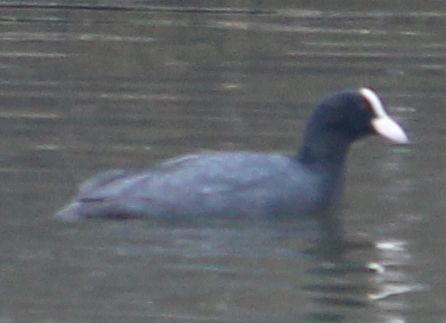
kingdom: Animalia
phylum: Chordata
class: Aves
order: Gruiformes
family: Rallidae
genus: Fulica
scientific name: Fulica atra
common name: Eurasian coot
